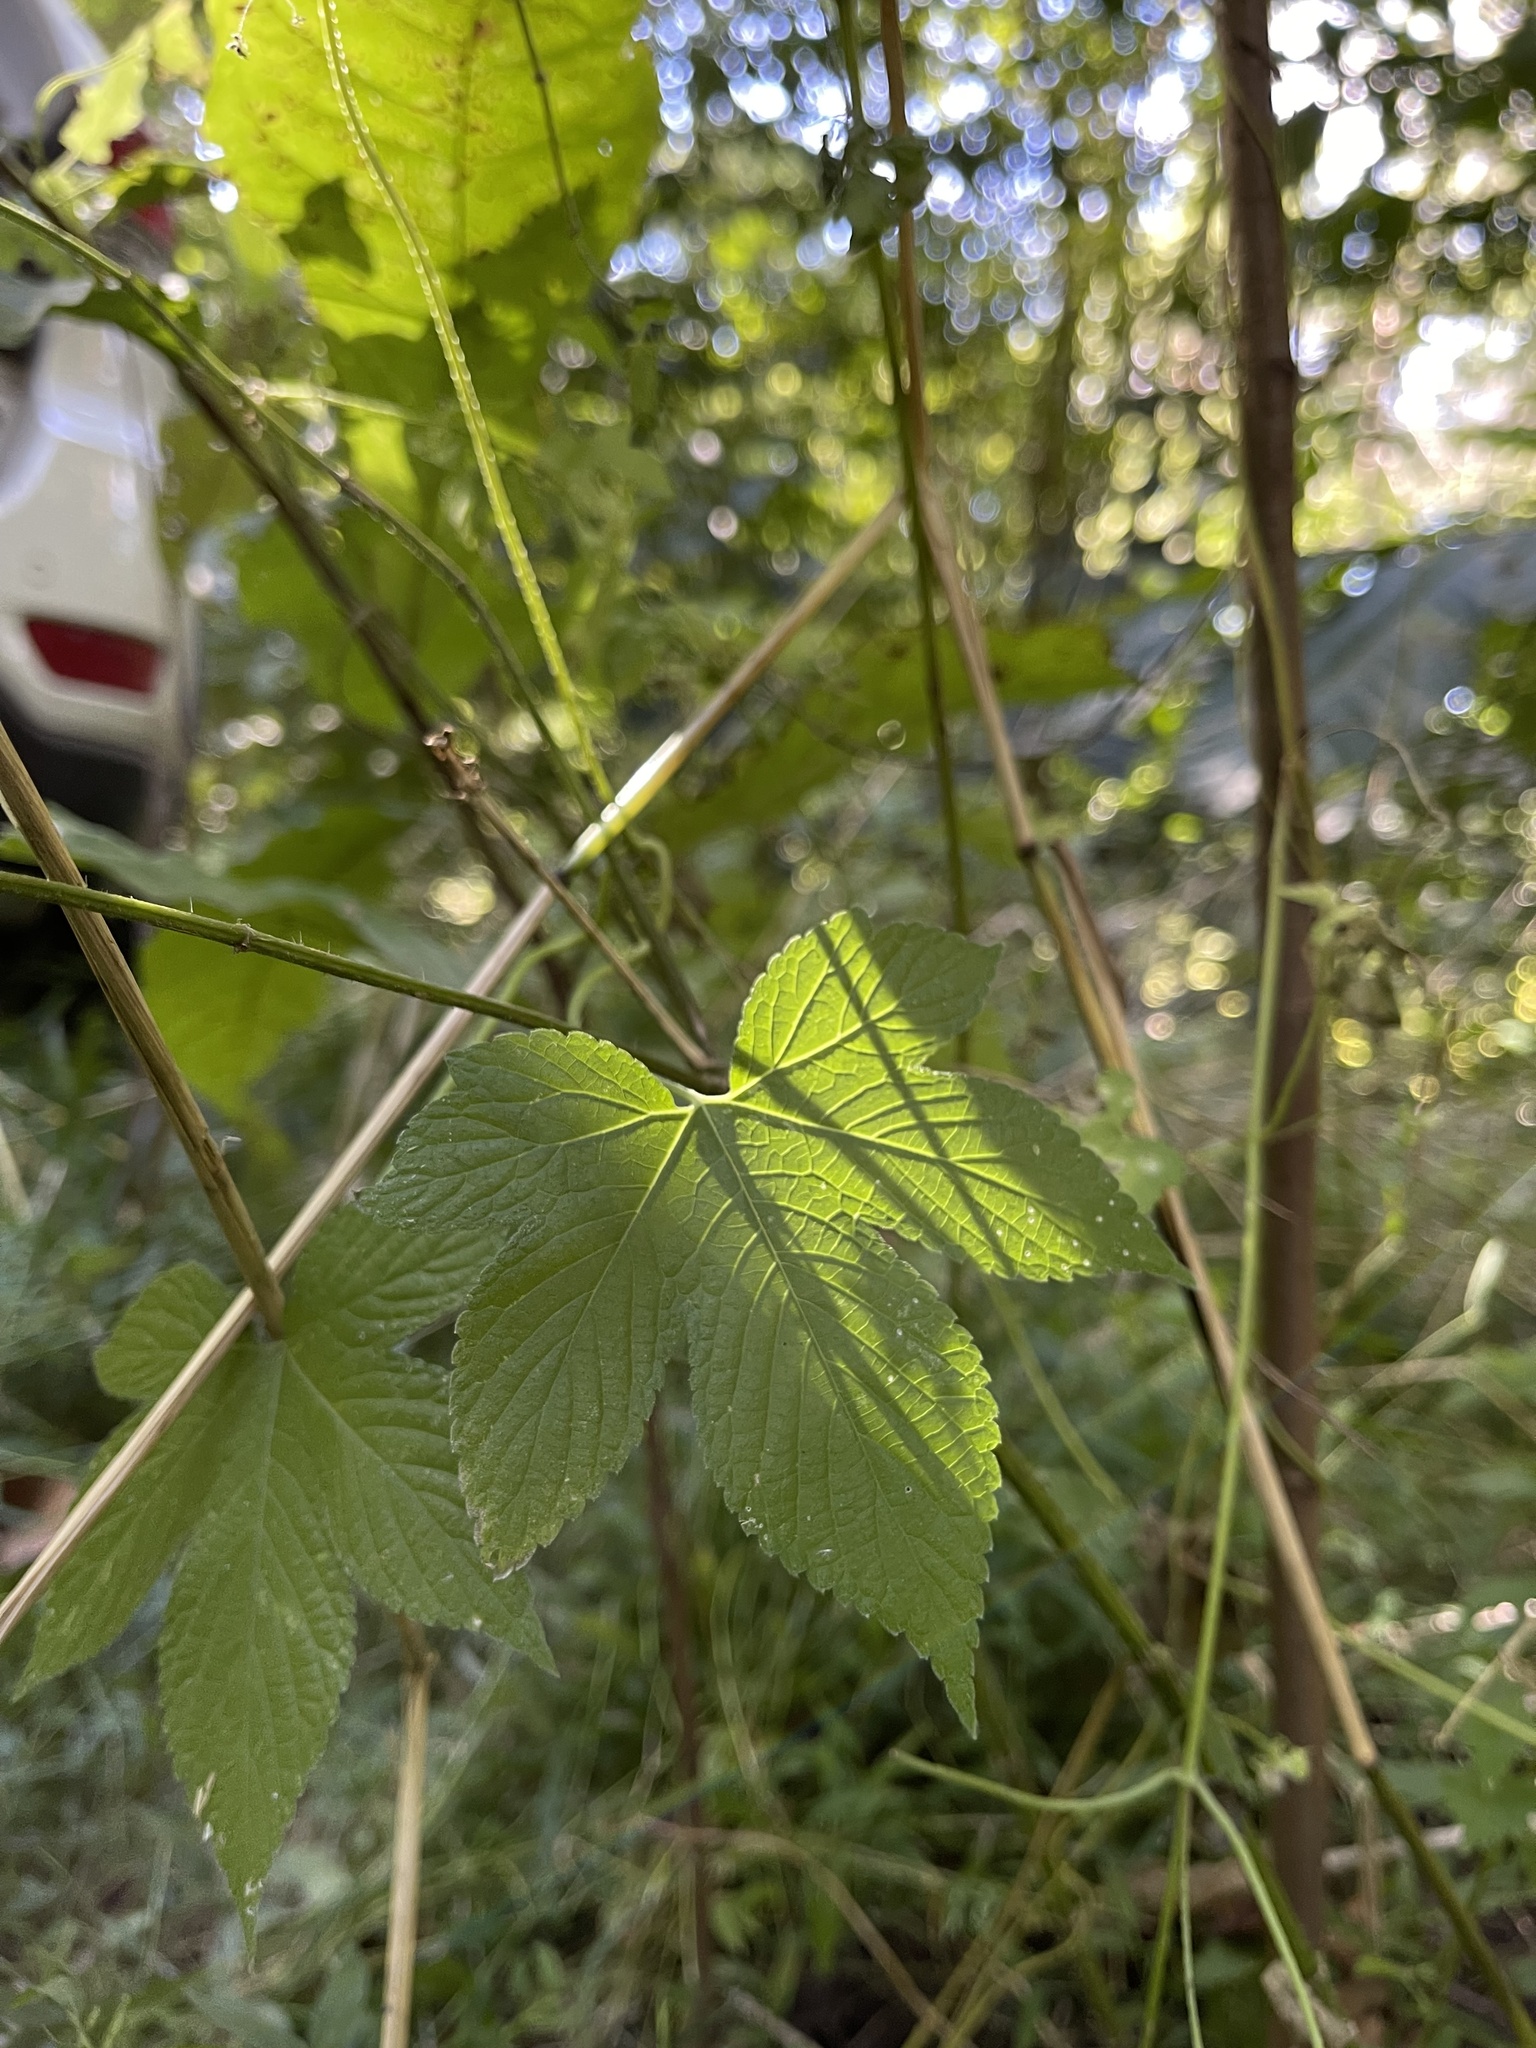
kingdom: Plantae
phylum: Tracheophyta
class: Magnoliopsida
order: Rosales
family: Cannabaceae
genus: Humulus
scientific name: Humulus scandens
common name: Japanese hop
